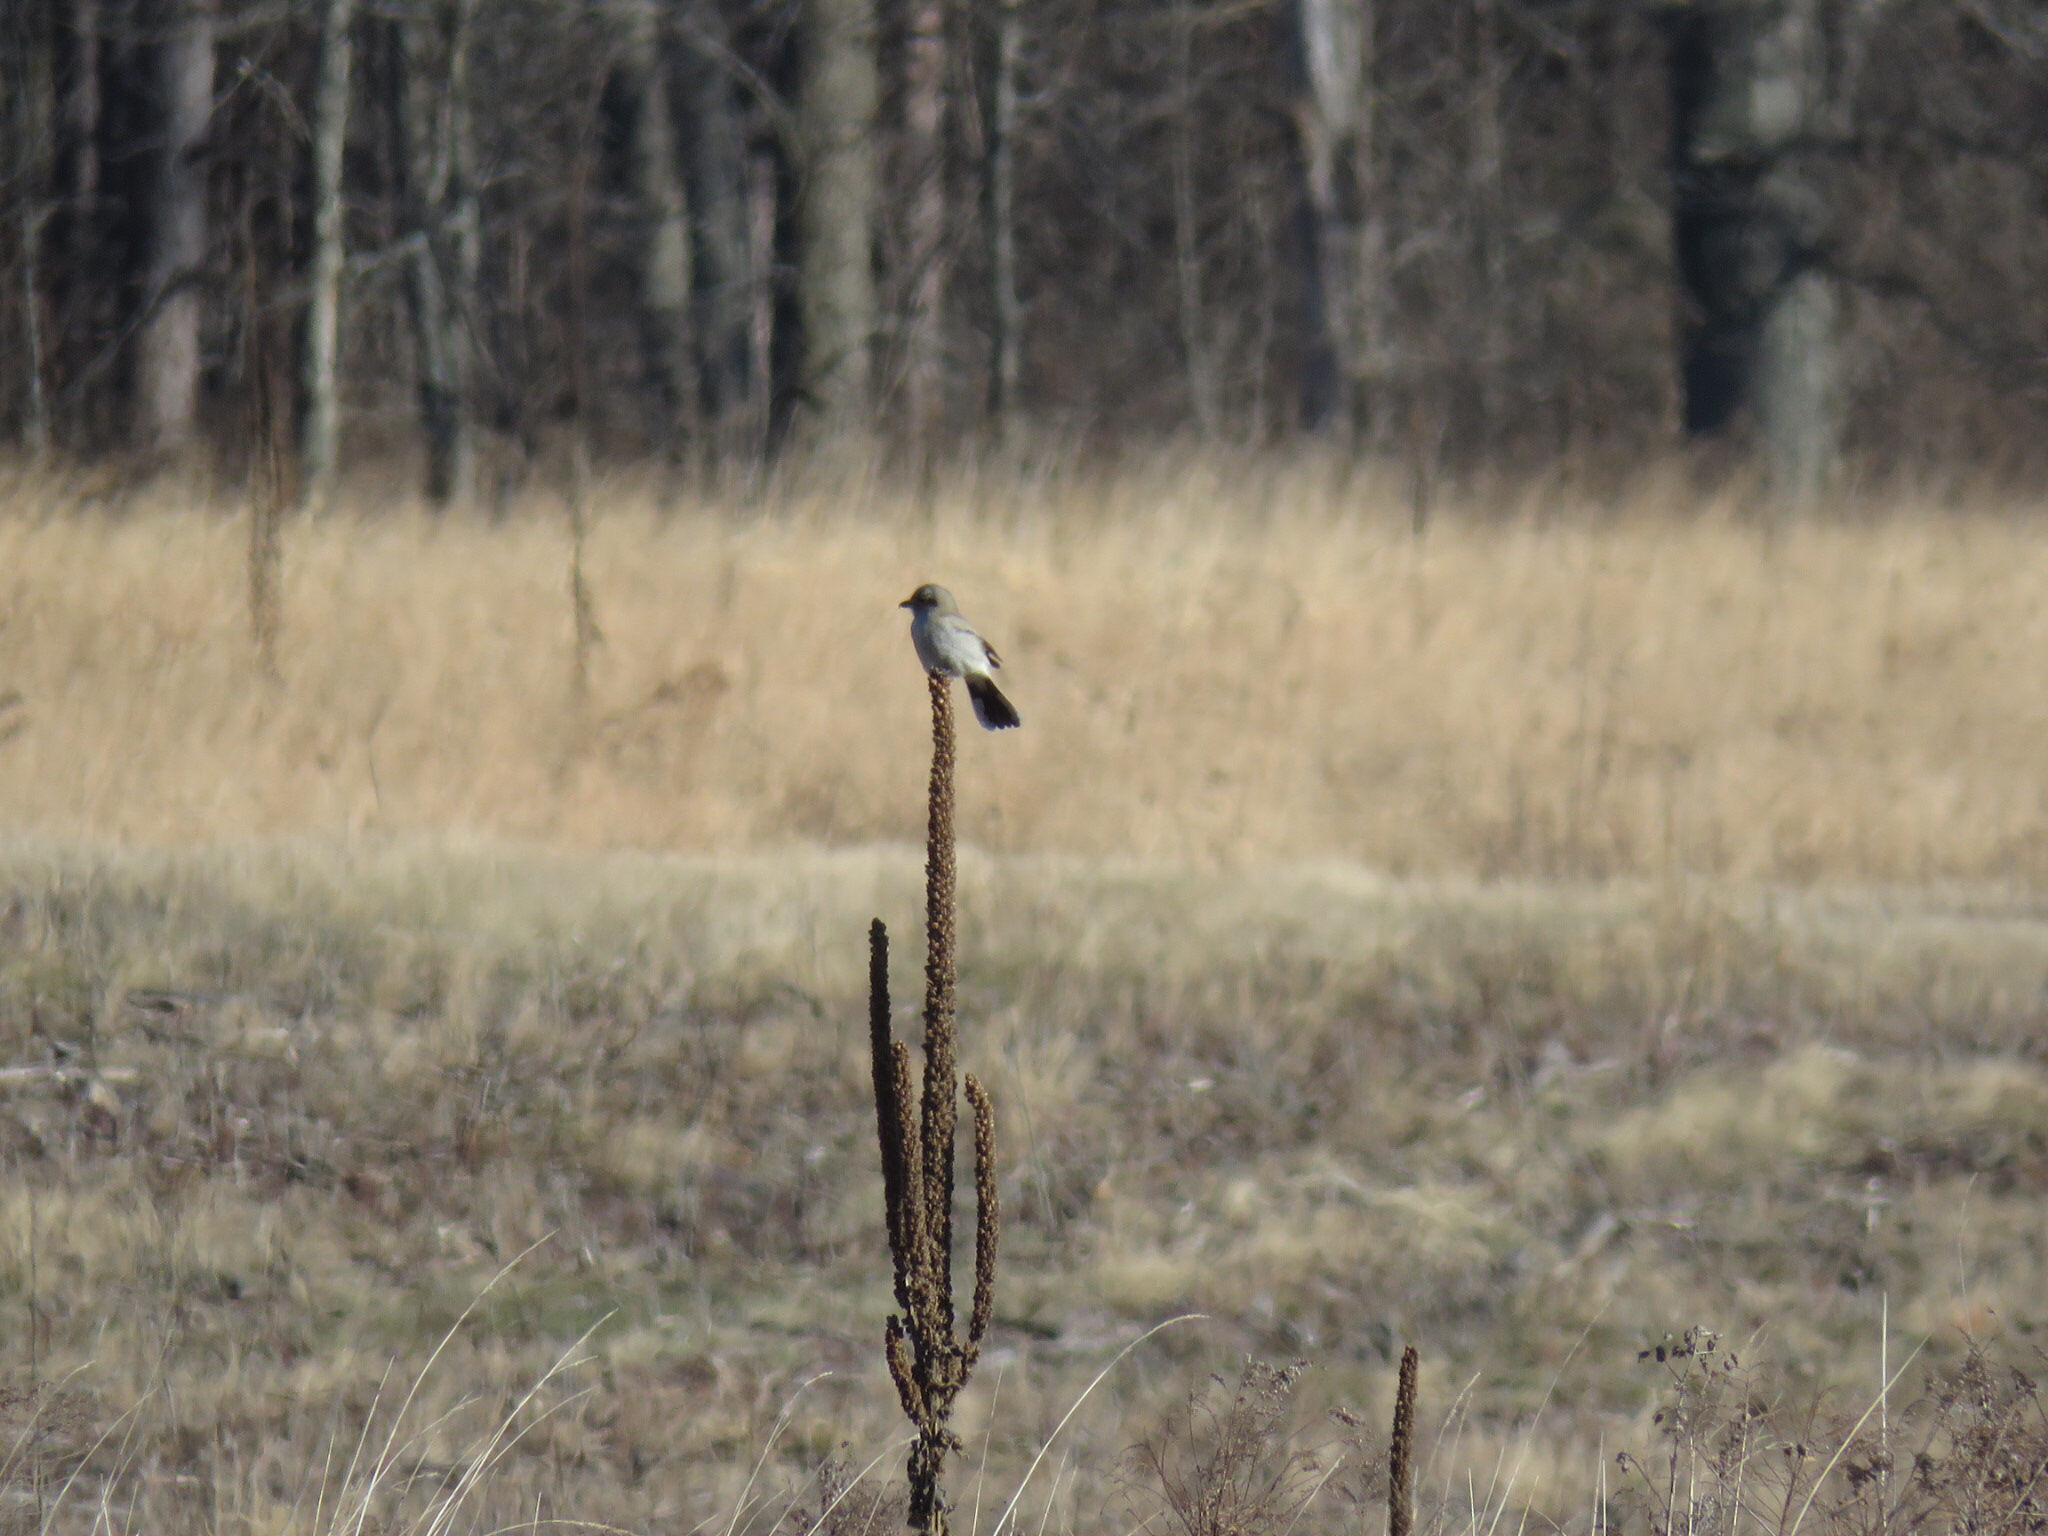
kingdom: Animalia
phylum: Chordata
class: Aves
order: Passeriformes
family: Laniidae
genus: Lanius
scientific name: Lanius borealis
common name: Northern shrike
